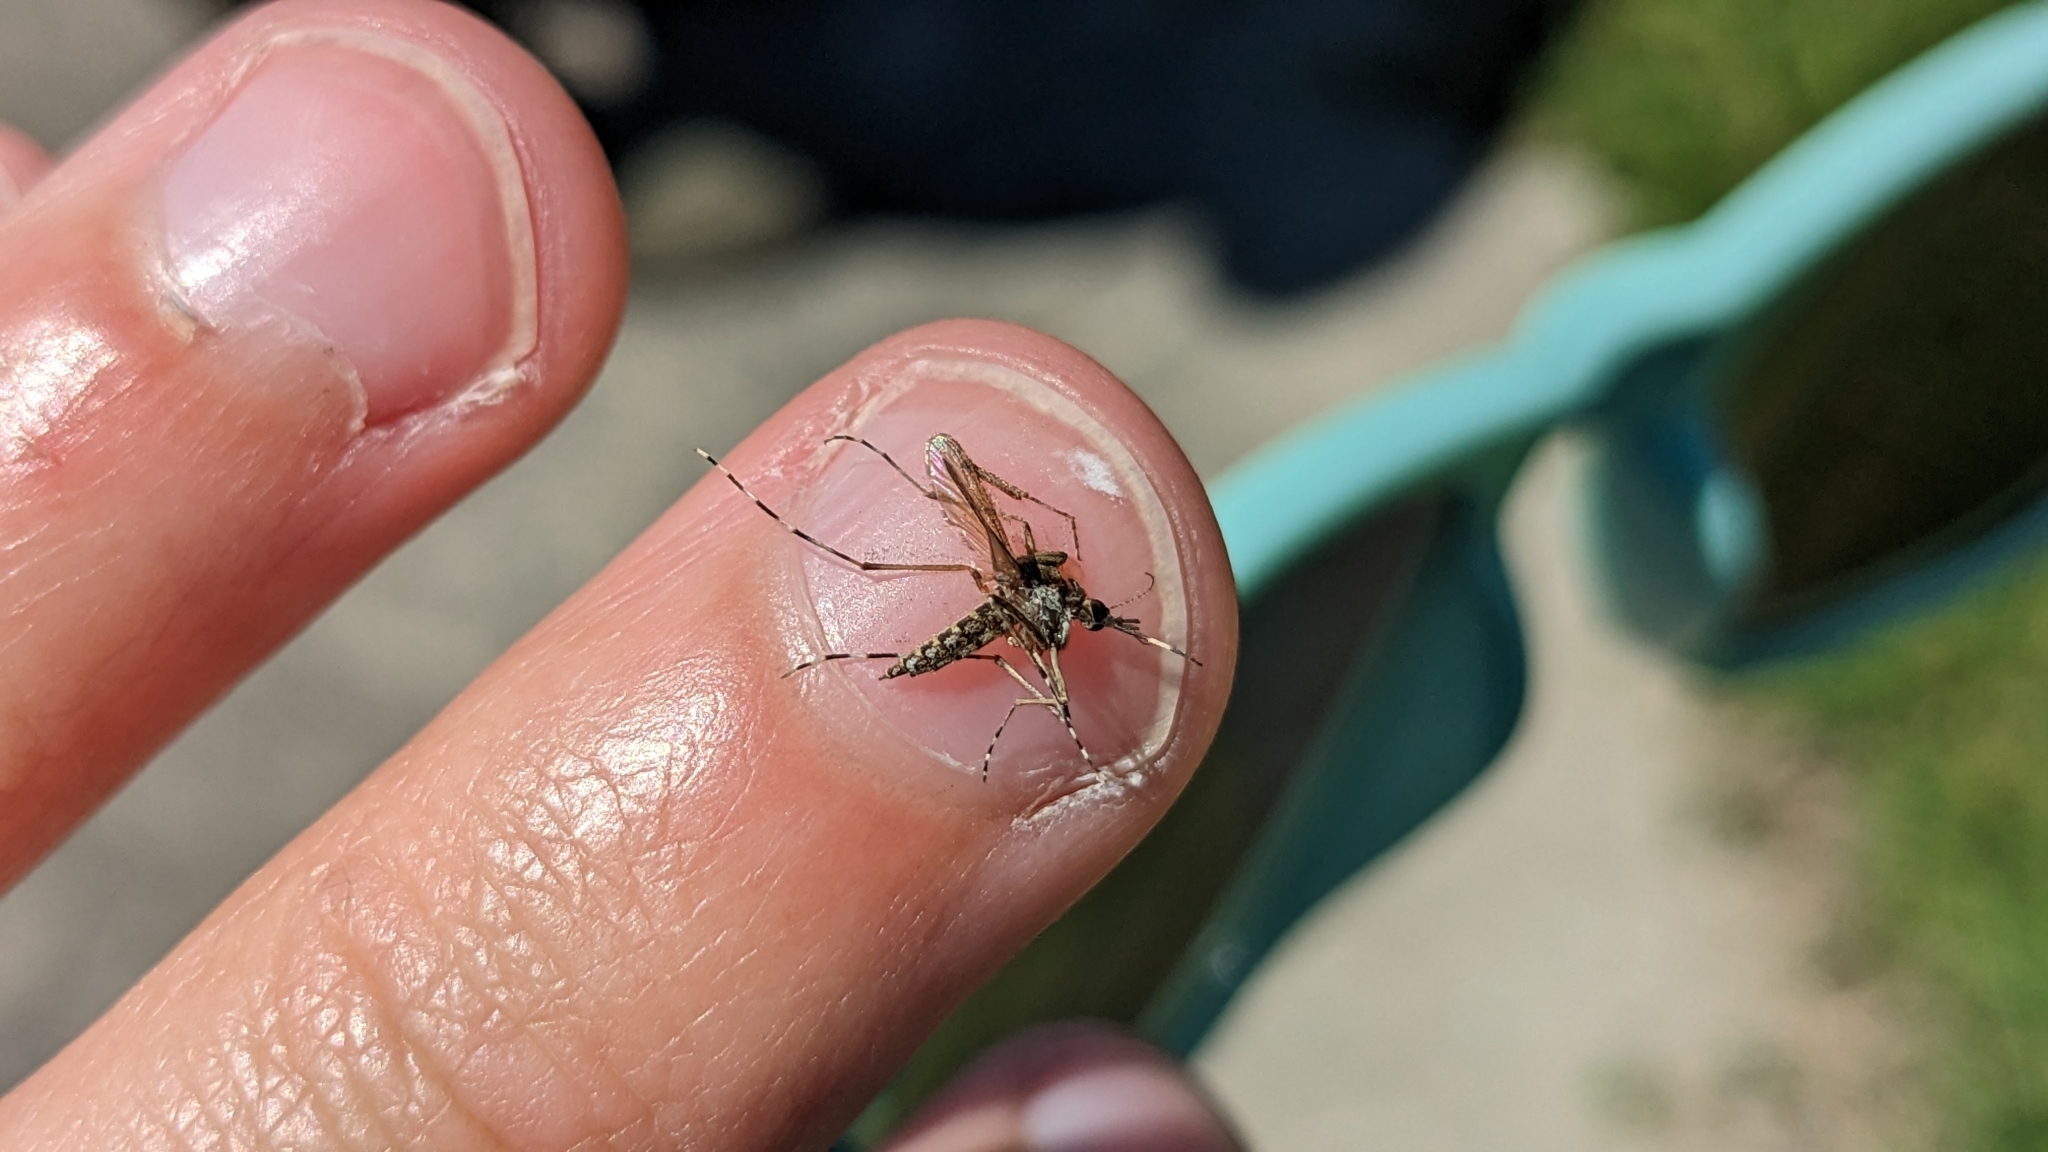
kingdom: Animalia
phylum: Arthropoda
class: Insecta
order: Diptera
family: Culicidae
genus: Aedes
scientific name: Aedes sollicitans
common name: Saltmarsh mosquito
